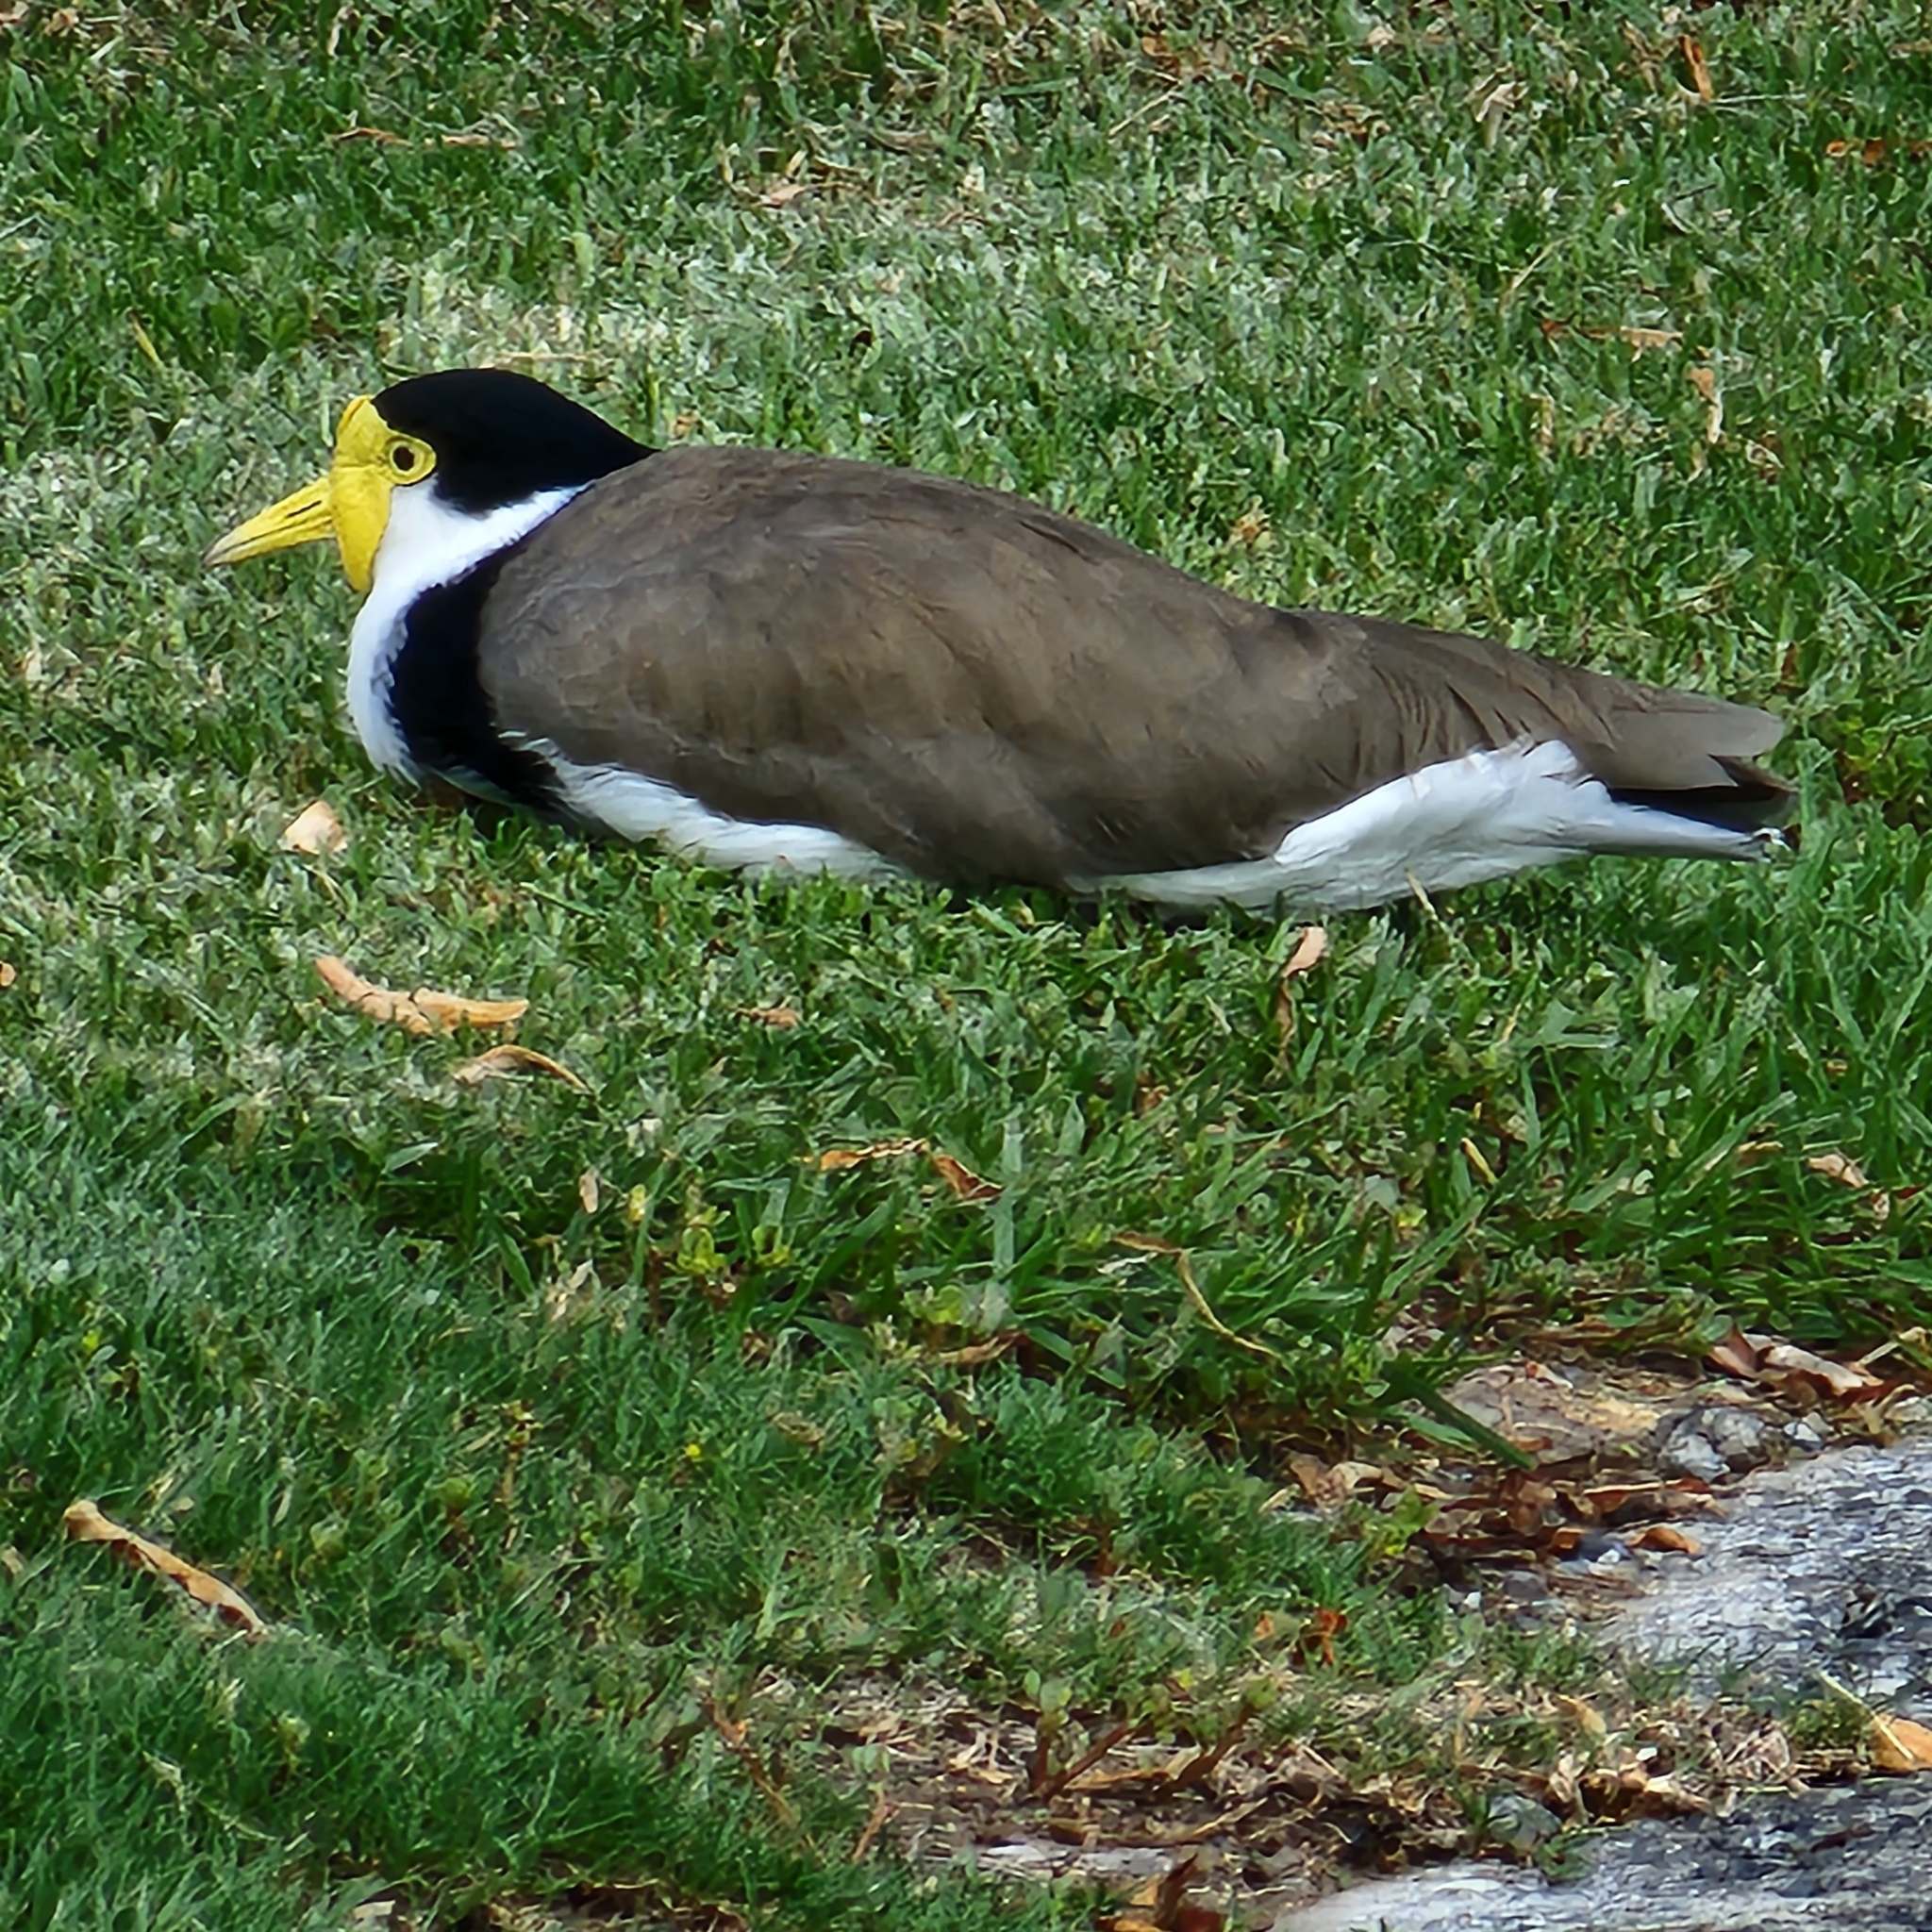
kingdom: Animalia
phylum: Chordata
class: Aves
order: Charadriiformes
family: Charadriidae
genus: Vanellus
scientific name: Vanellus miles
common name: Masked lapwing
